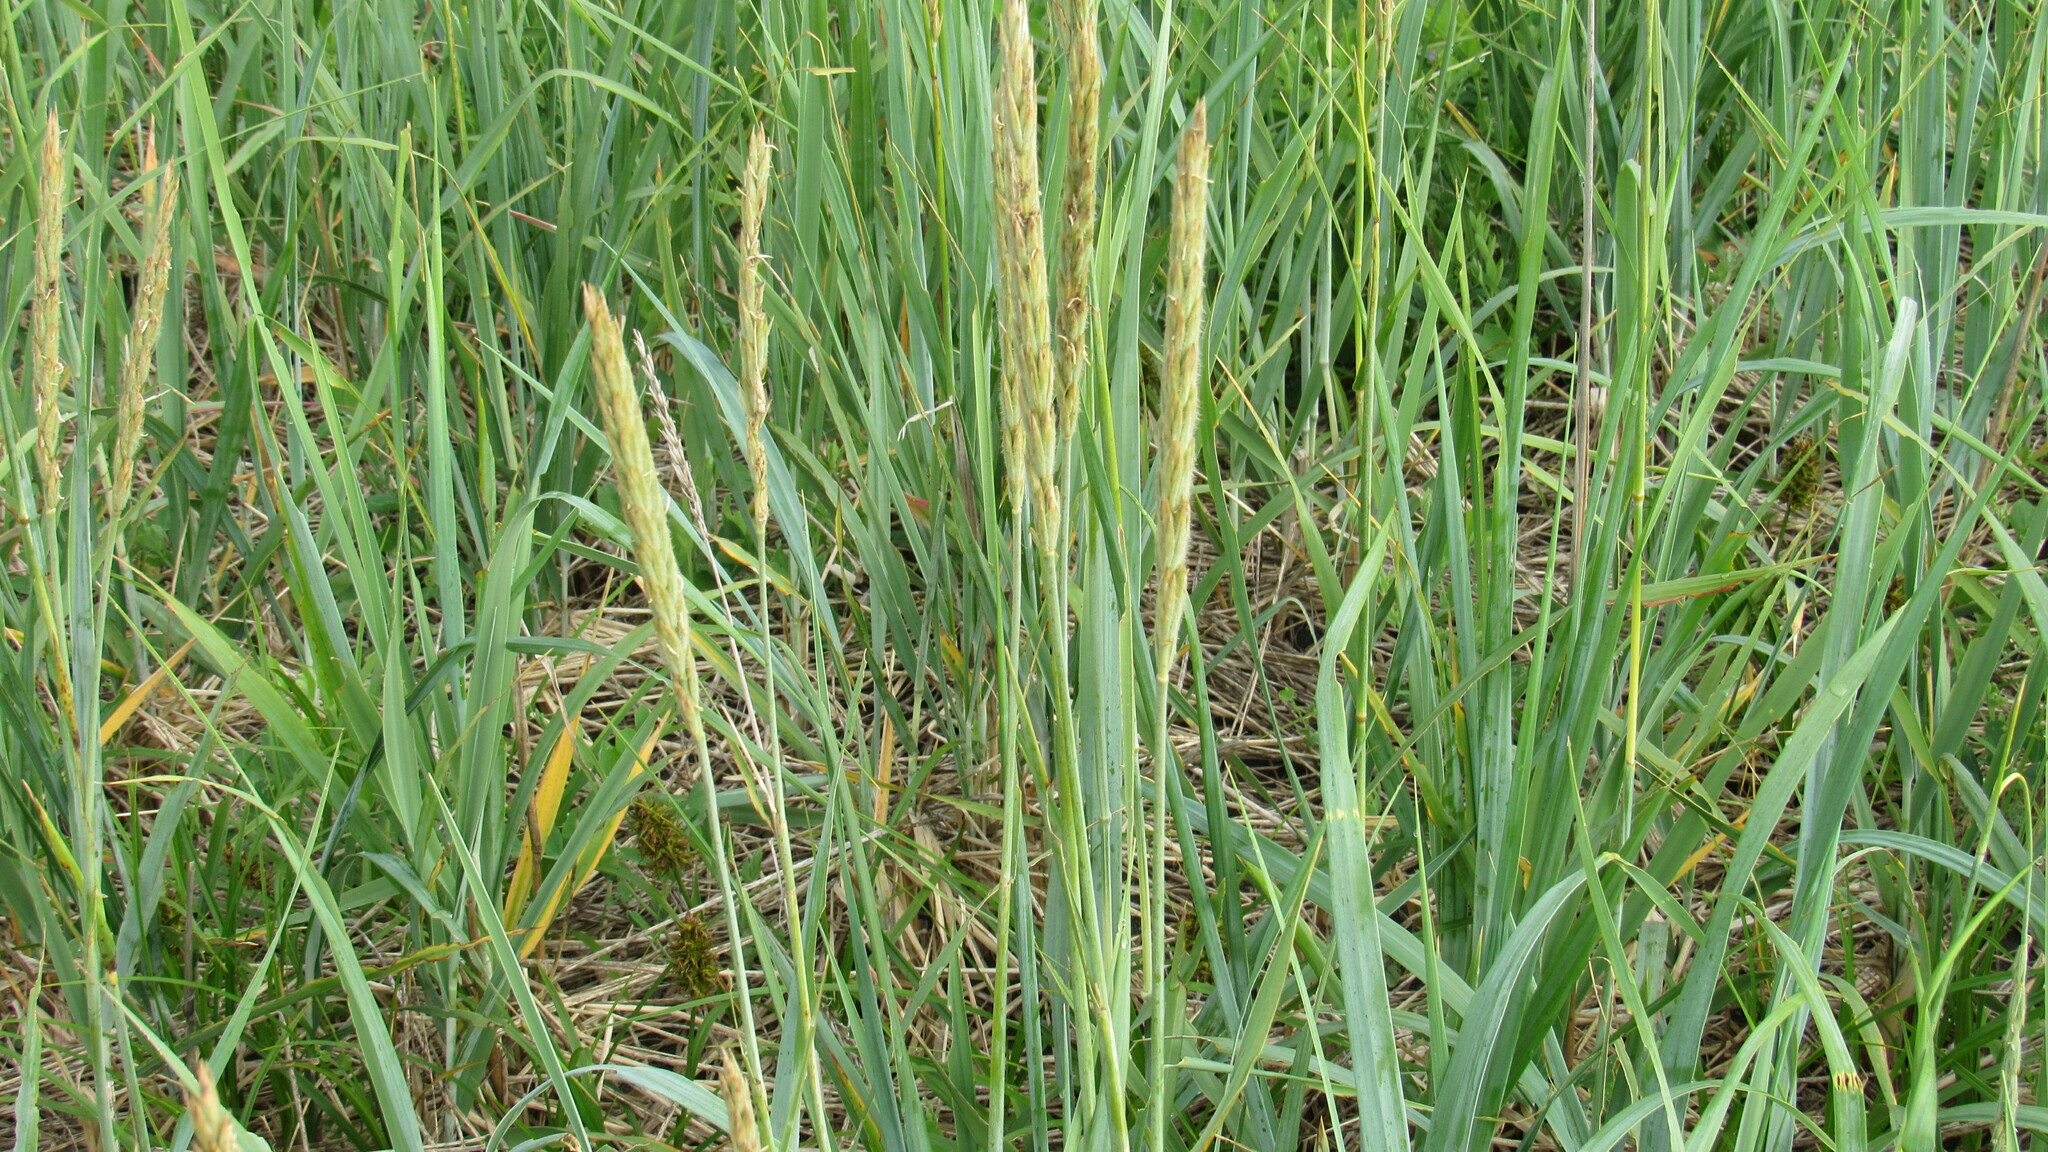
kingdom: Plantae
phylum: Tracheophyta
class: Liliopsida
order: Poales
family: Poaceae
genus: Leymus
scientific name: Leymus mollis
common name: American dune grass
